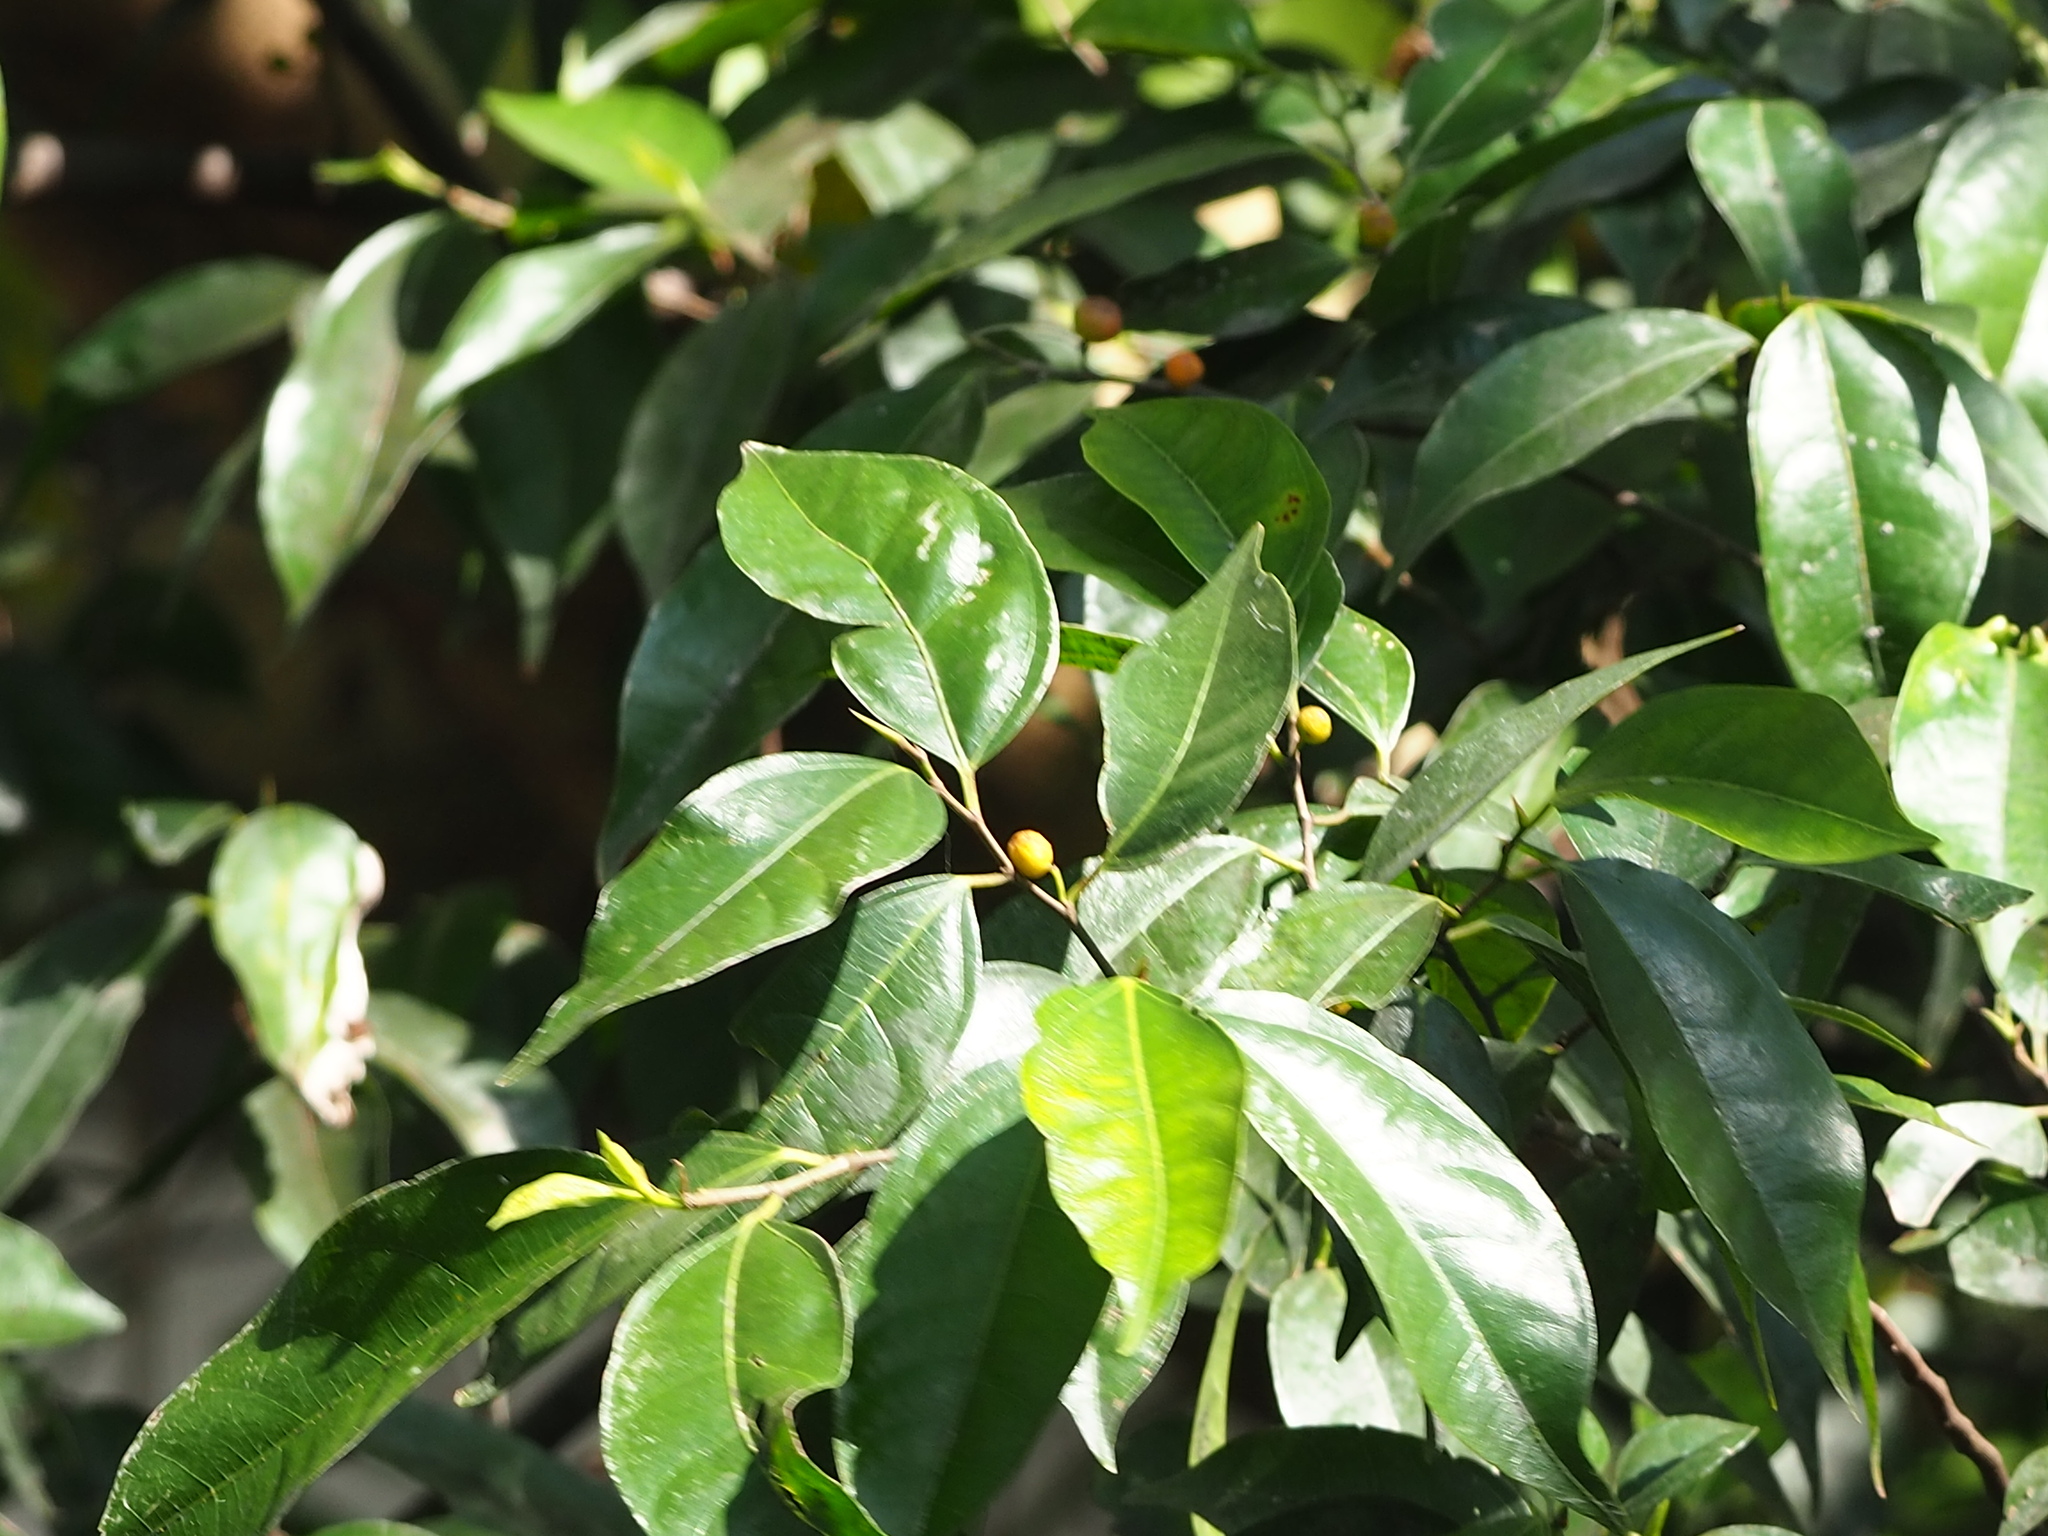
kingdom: Plantae
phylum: Tracheophyta
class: Magnoliopsida
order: Rosales
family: Moraceae
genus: Ficus
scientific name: Ficus ampelos
